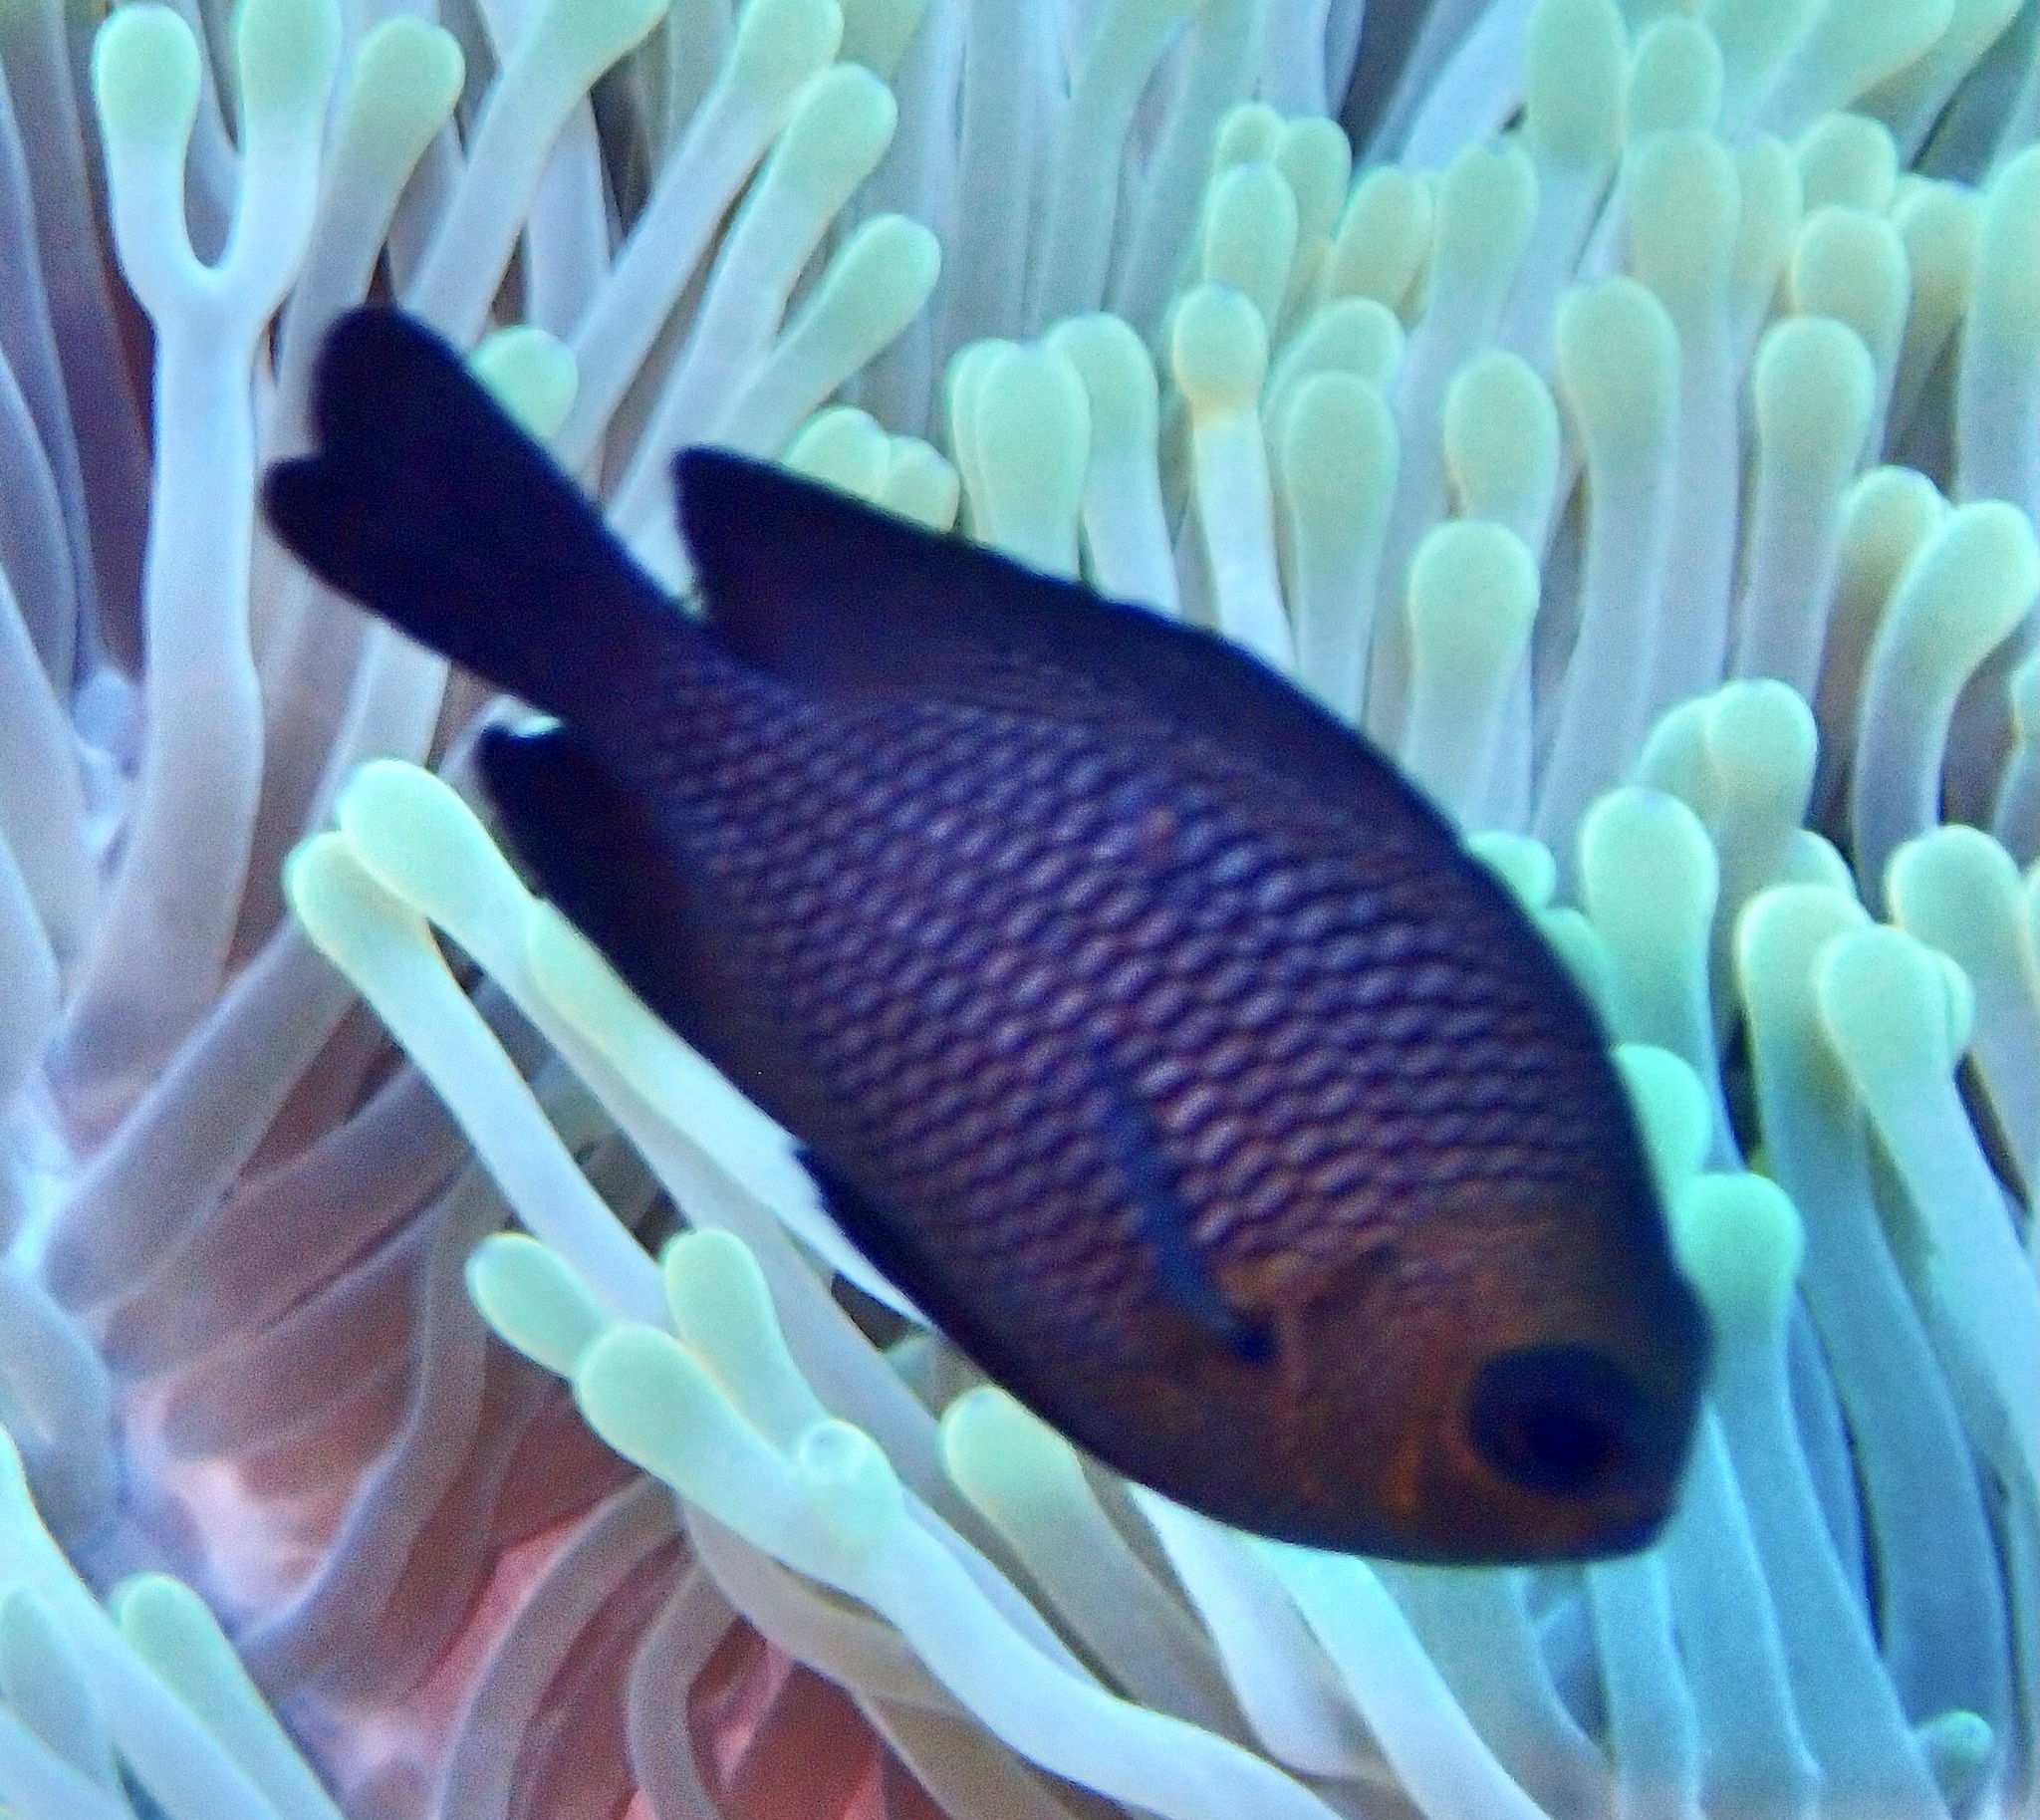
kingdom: Animalia
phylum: Chordata
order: Perciformes
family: Pomacentridae
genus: Dascyllus
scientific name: Dascyllus trimaculatus
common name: Threespot dascyllus
